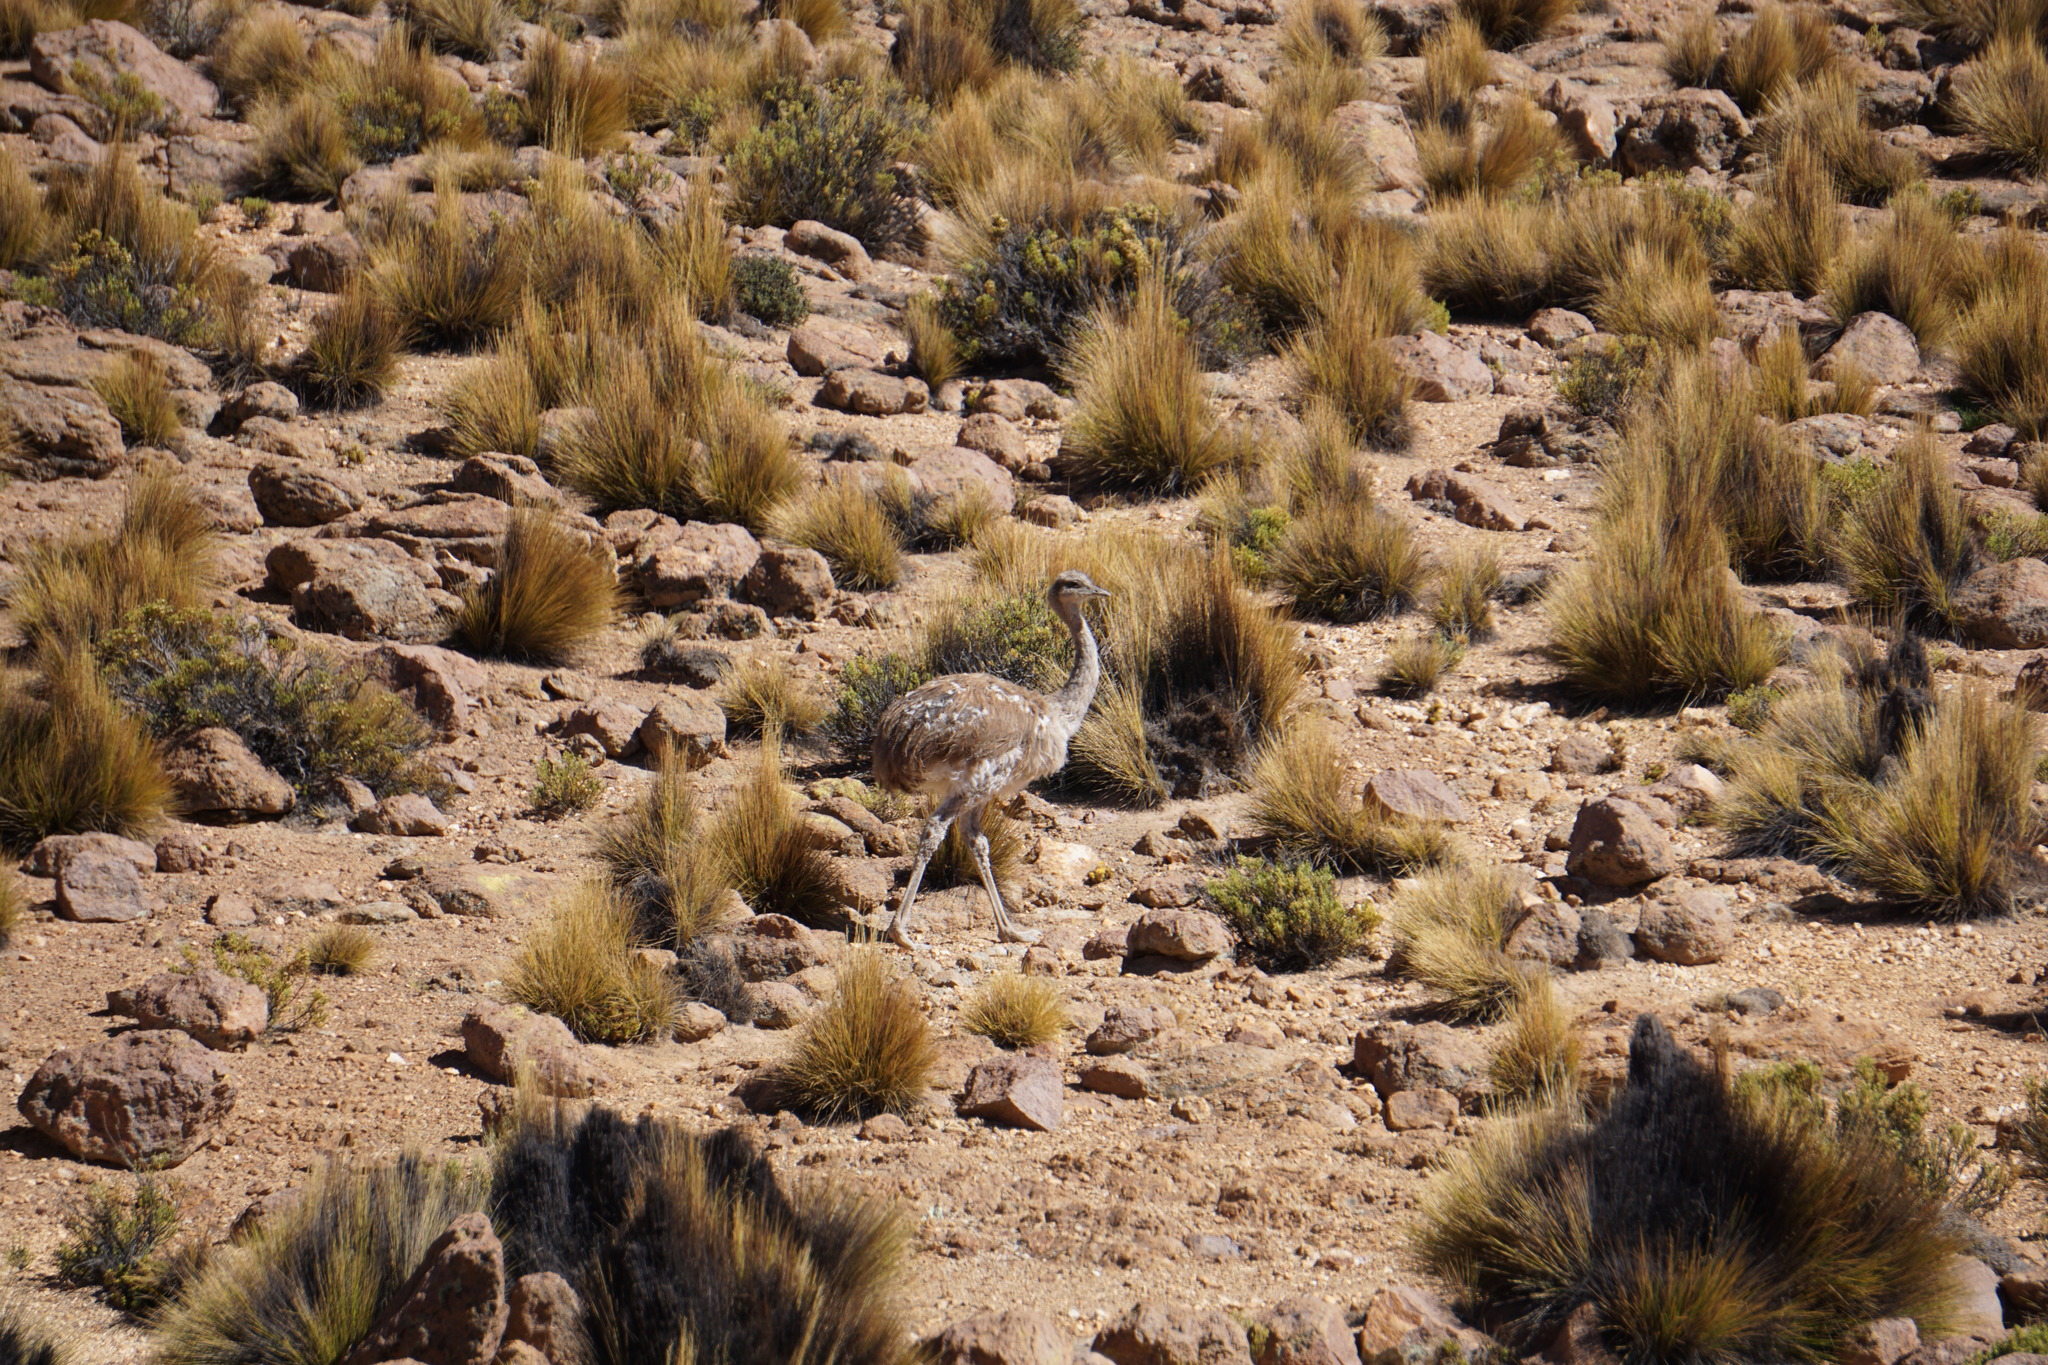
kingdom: Animalia
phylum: Chordata
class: Aves
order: Rheiformes
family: Rheidae
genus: Rhea
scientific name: Rhea pennata
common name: Lesser rhea
